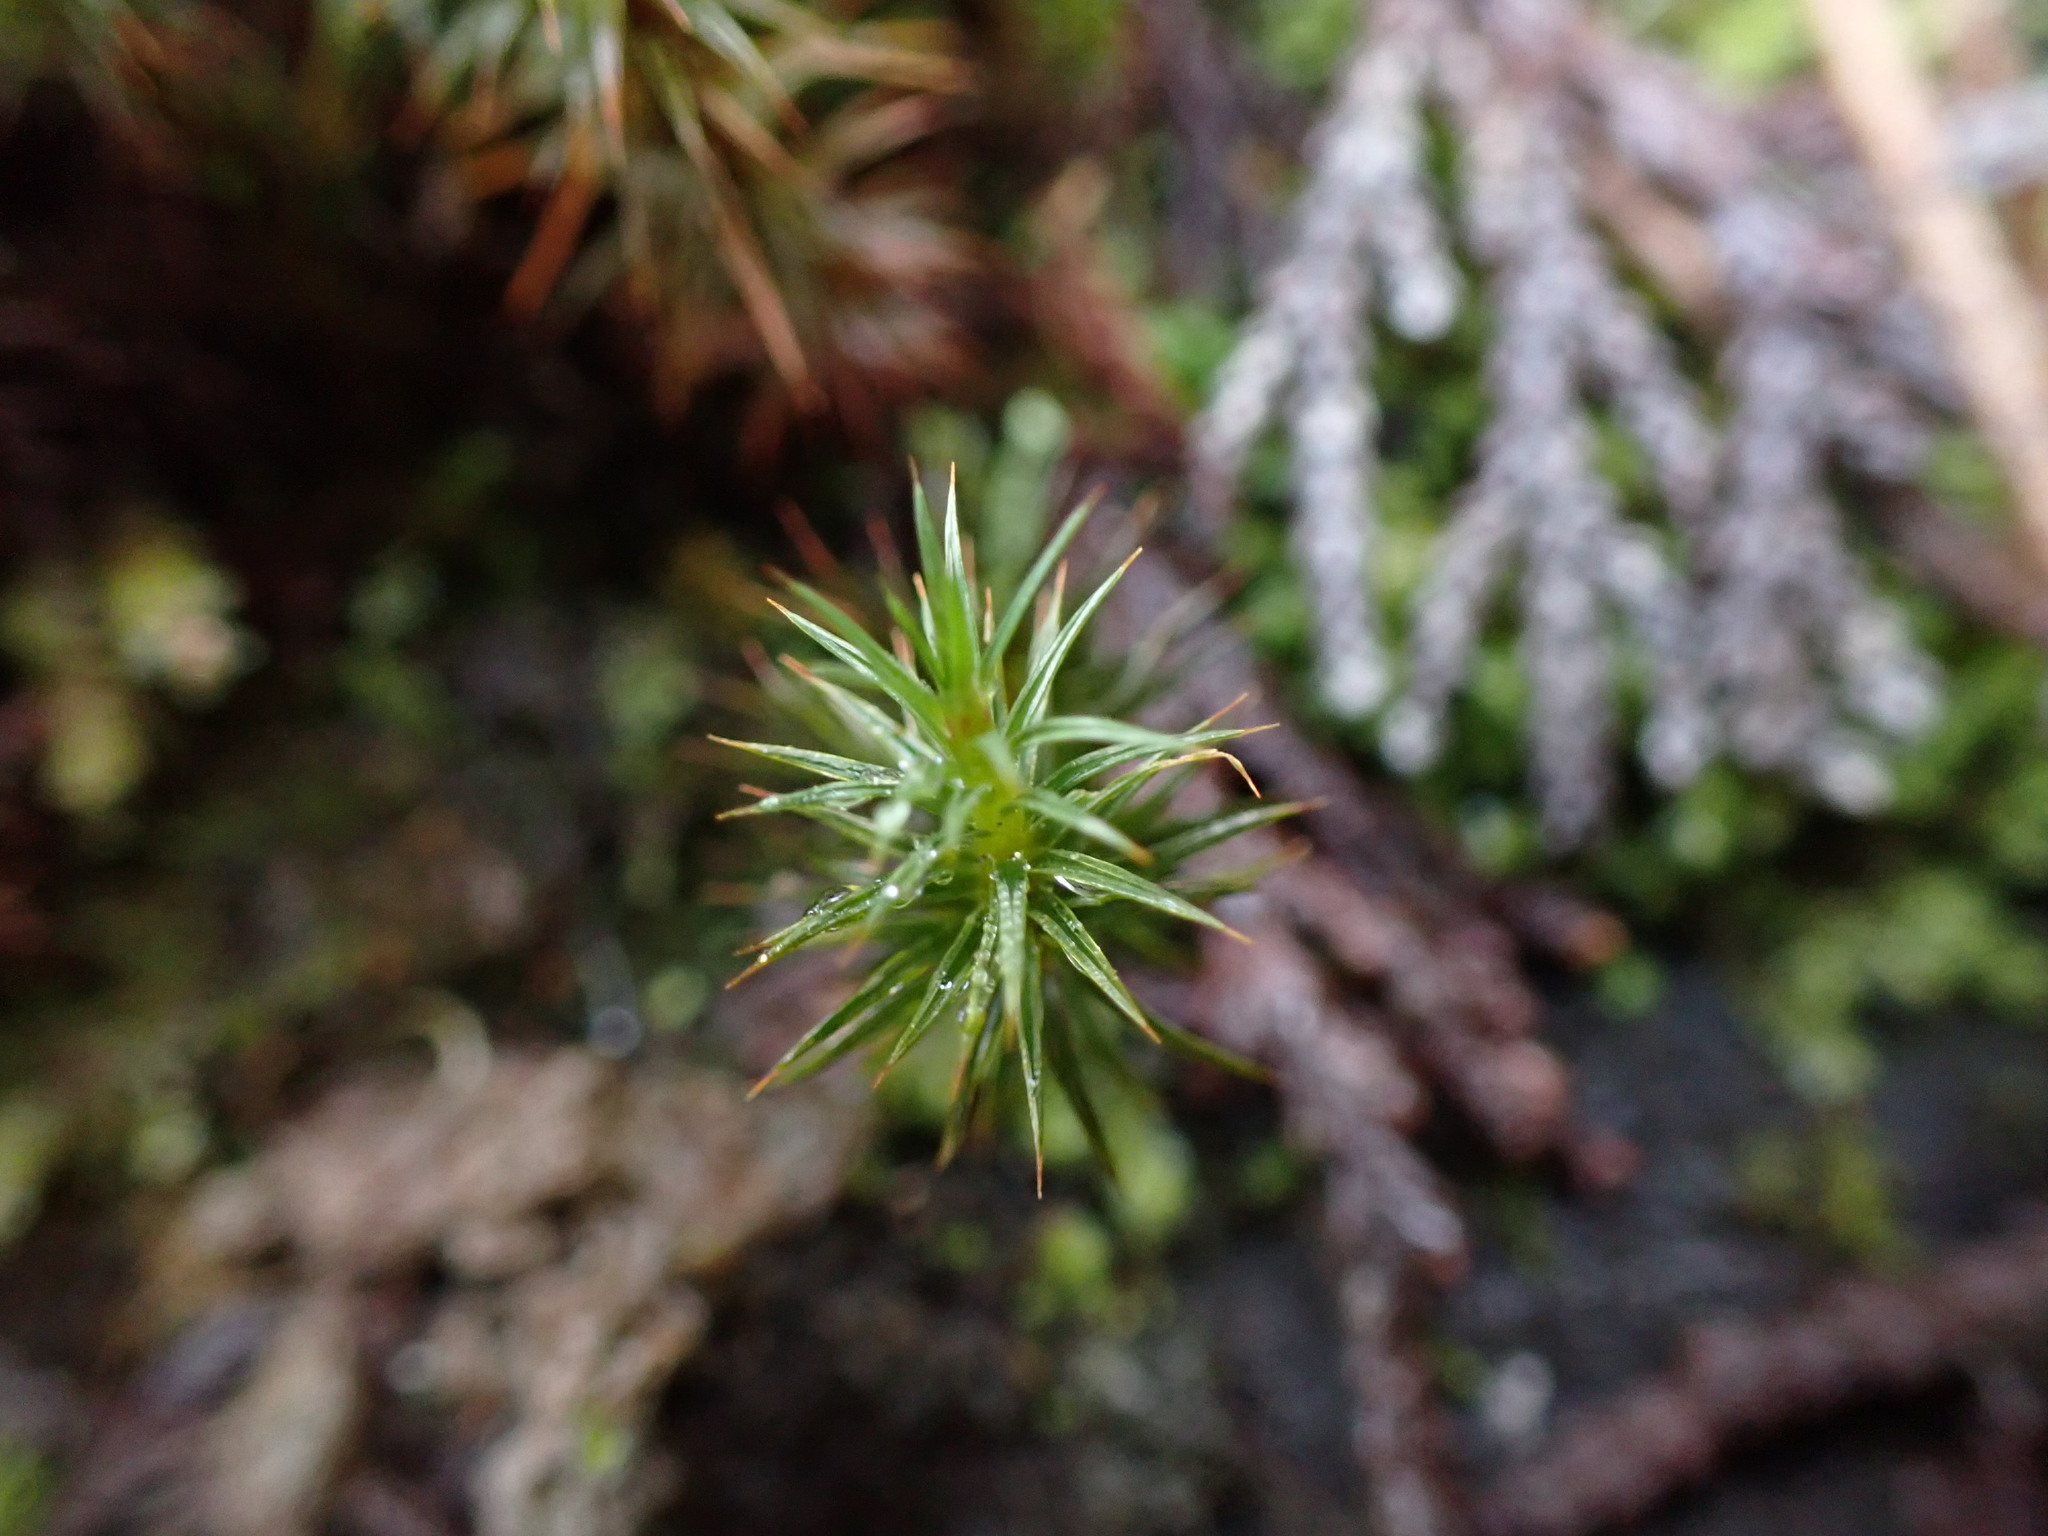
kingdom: Plantae
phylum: Bryophyta
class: Polytrichopsida
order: Polytrichales
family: Polytrichaceae
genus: Polytrichum
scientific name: Polytrichum juniperinum
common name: Juniper haircap moss
